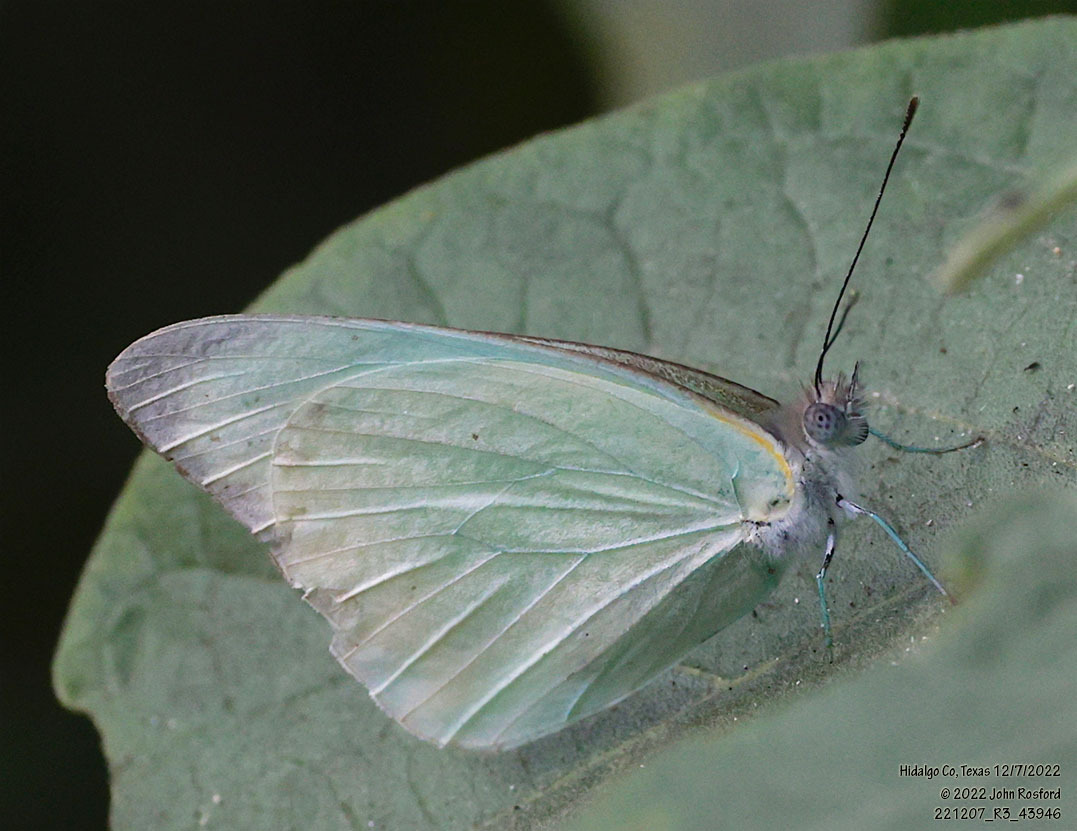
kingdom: Animalia
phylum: Arthropoda
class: Insecta
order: Lepidoptera
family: Pieridae
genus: Glutophrissa
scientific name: Glutophrissa drusilla
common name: Florida white
